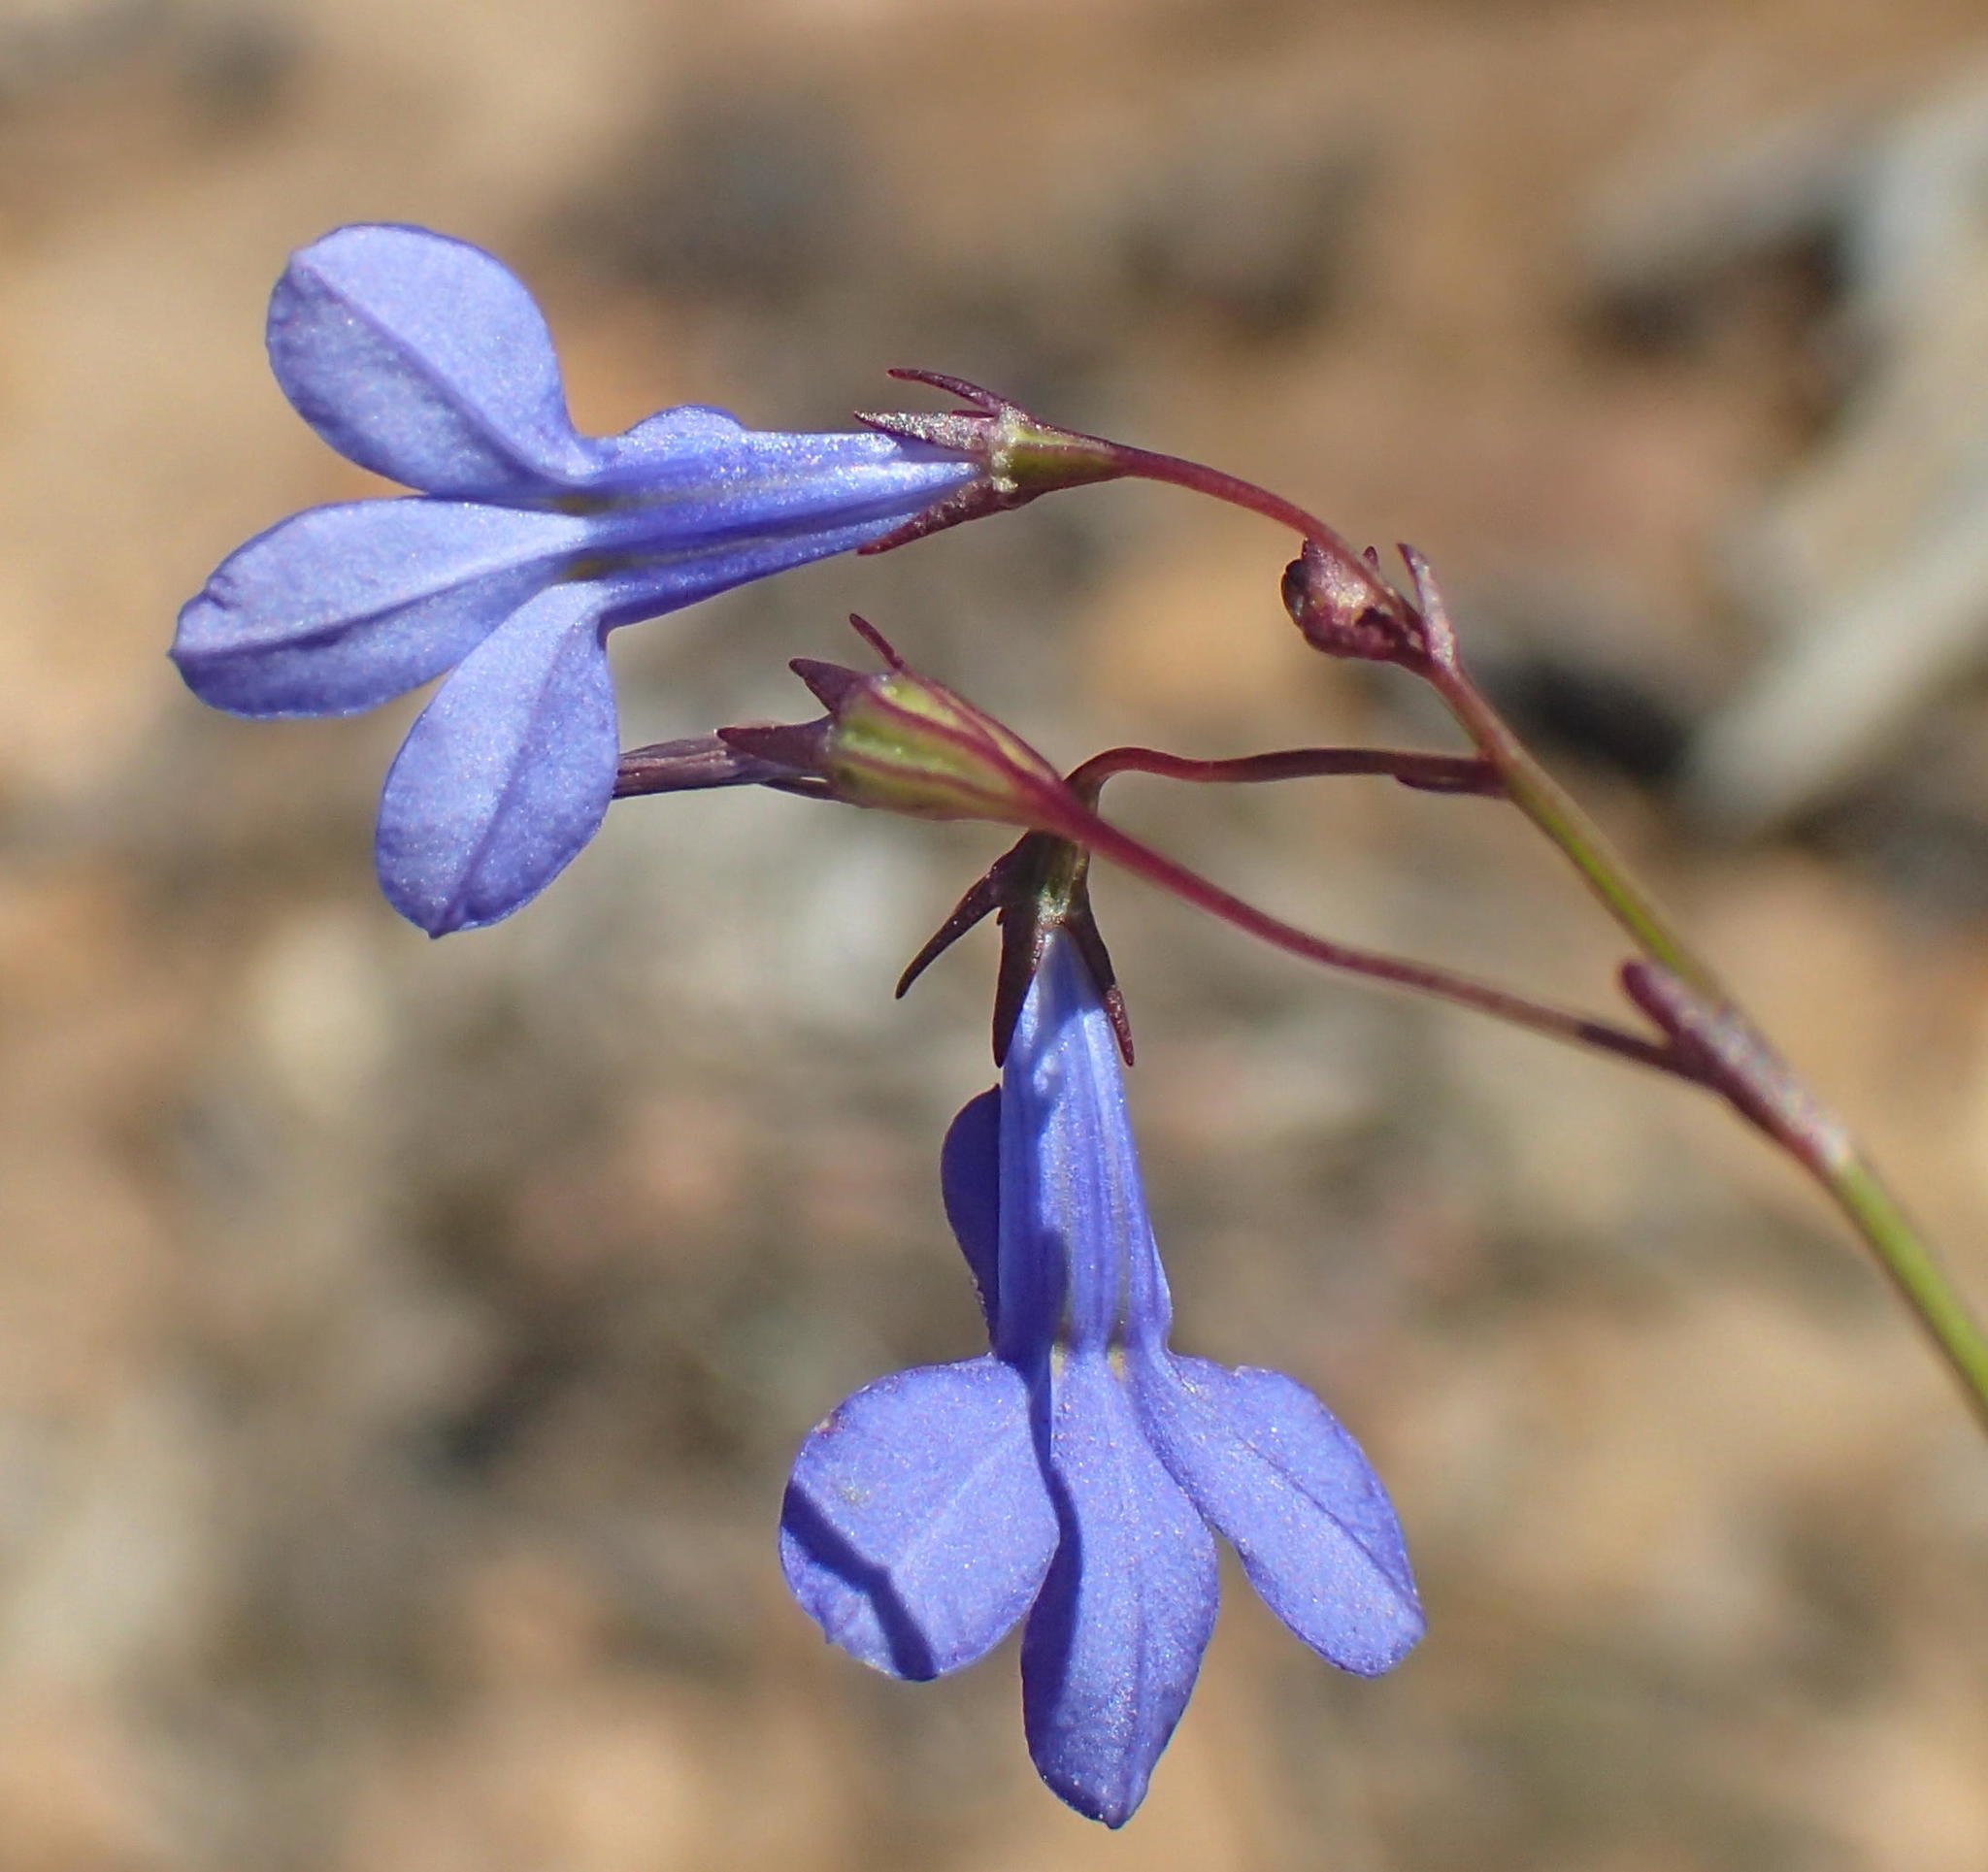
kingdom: Plantae
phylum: Tracheophyta
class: Magnoliopsida
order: Asterales
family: Campanulaceae
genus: Lobelia
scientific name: Lobelia erinus
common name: Edging lobelia
